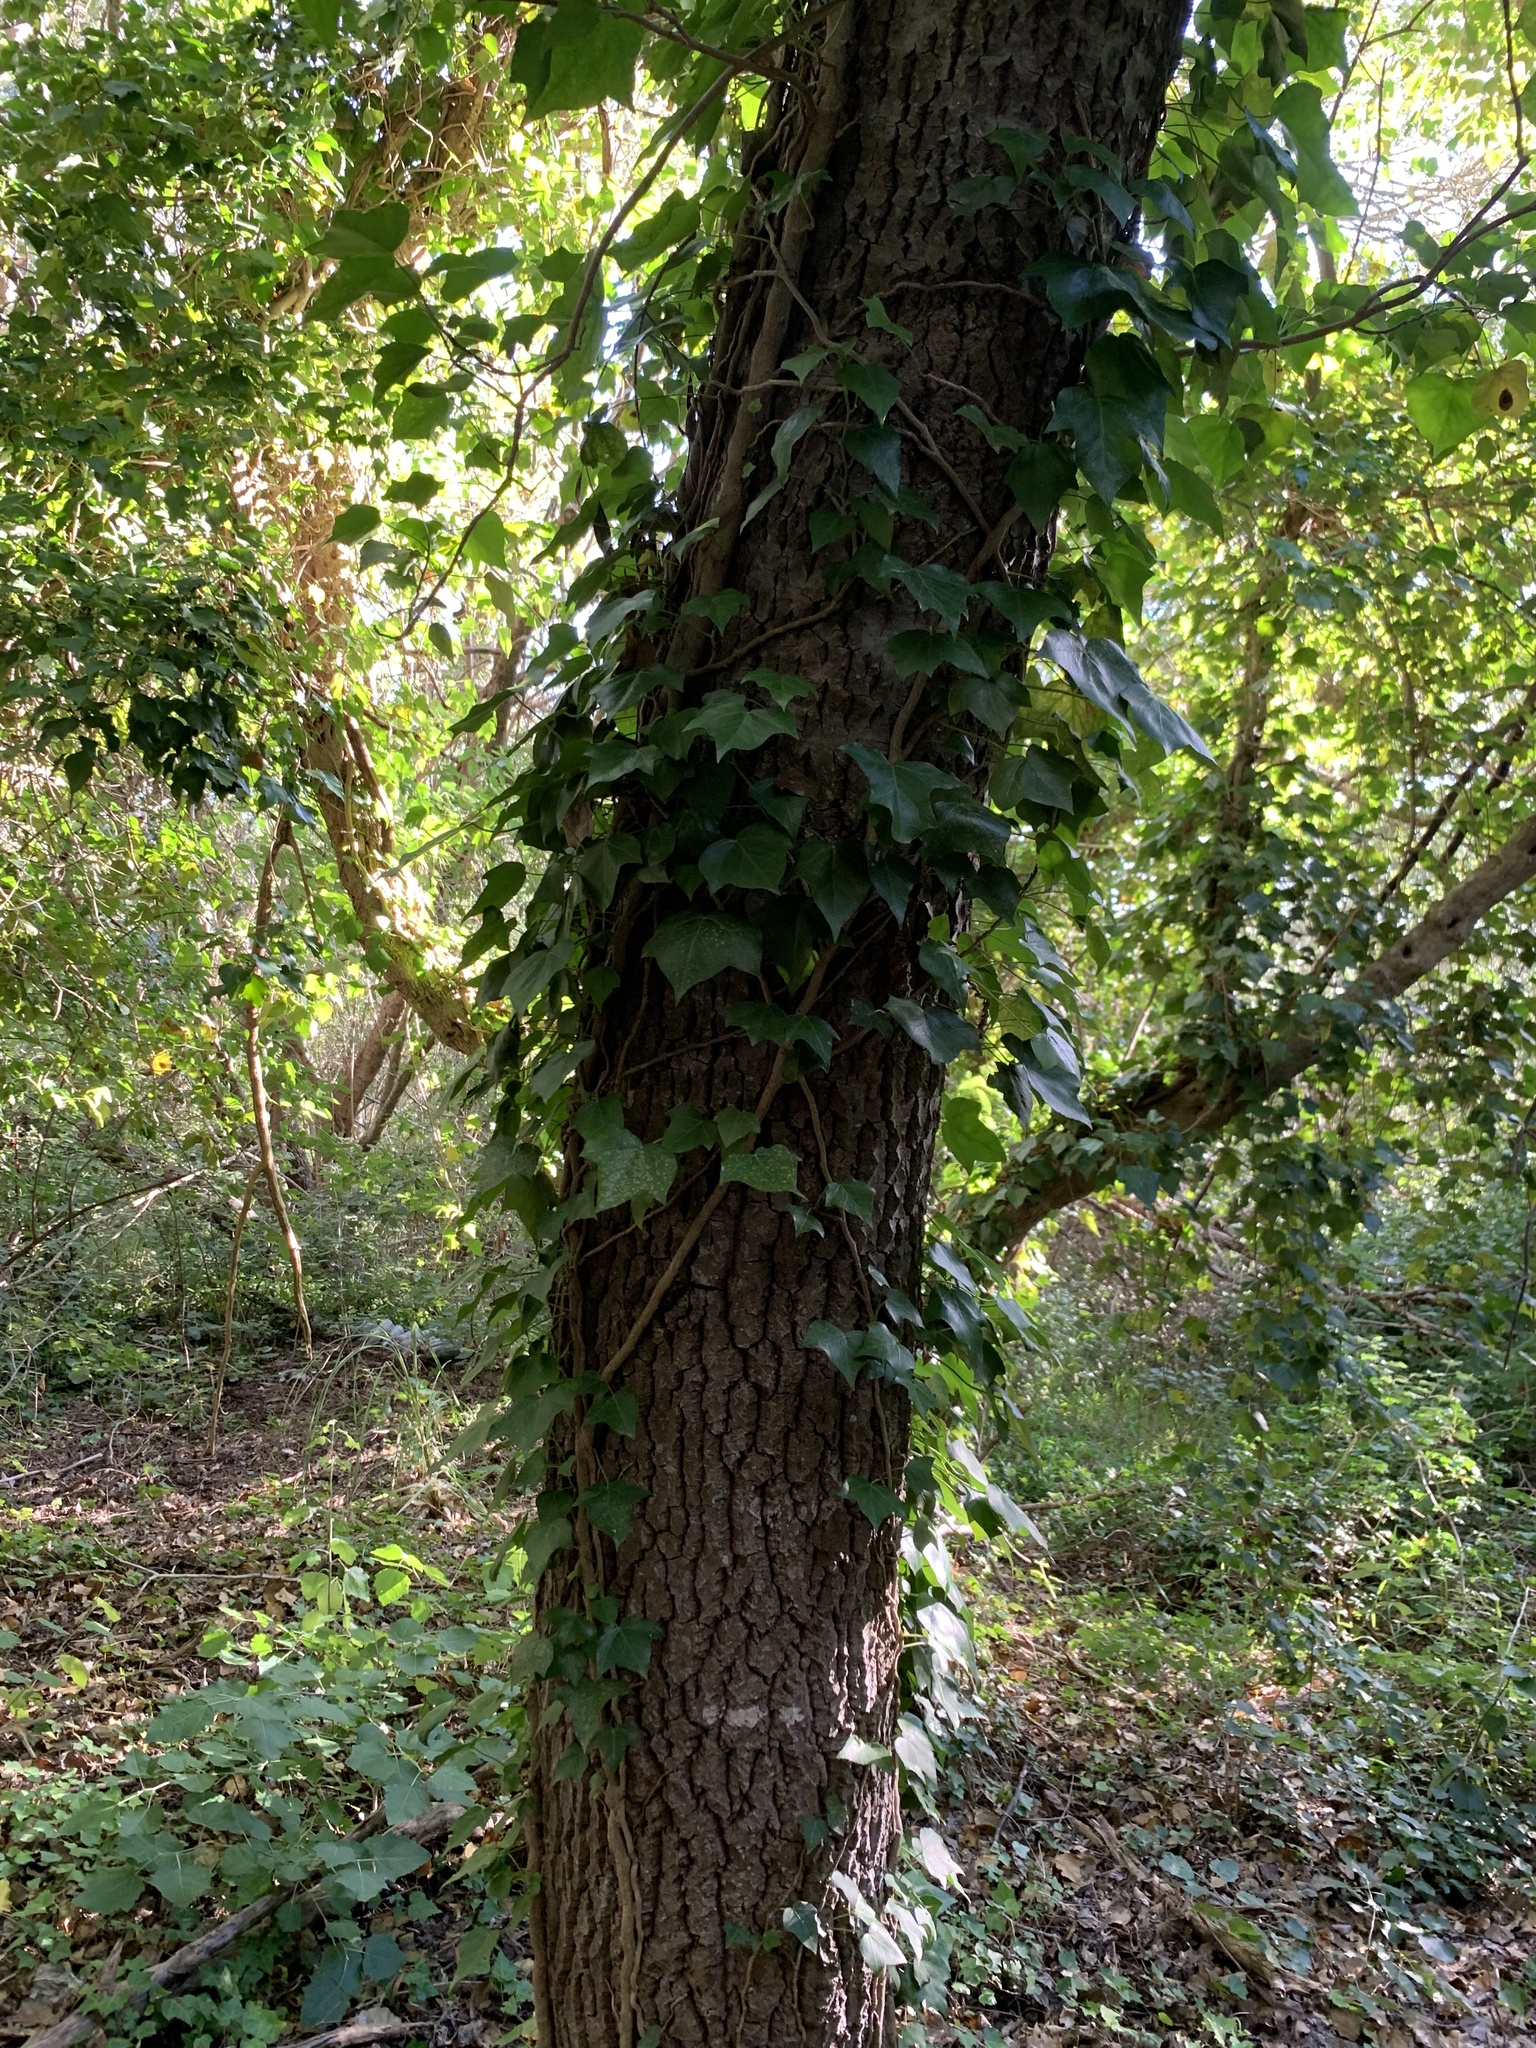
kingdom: Plantae
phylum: Tracheophyta
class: Magnoliopsida
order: Apiales
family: Araliaceae
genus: Hedera
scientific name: Hedera canariensis
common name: Madeira ivy
